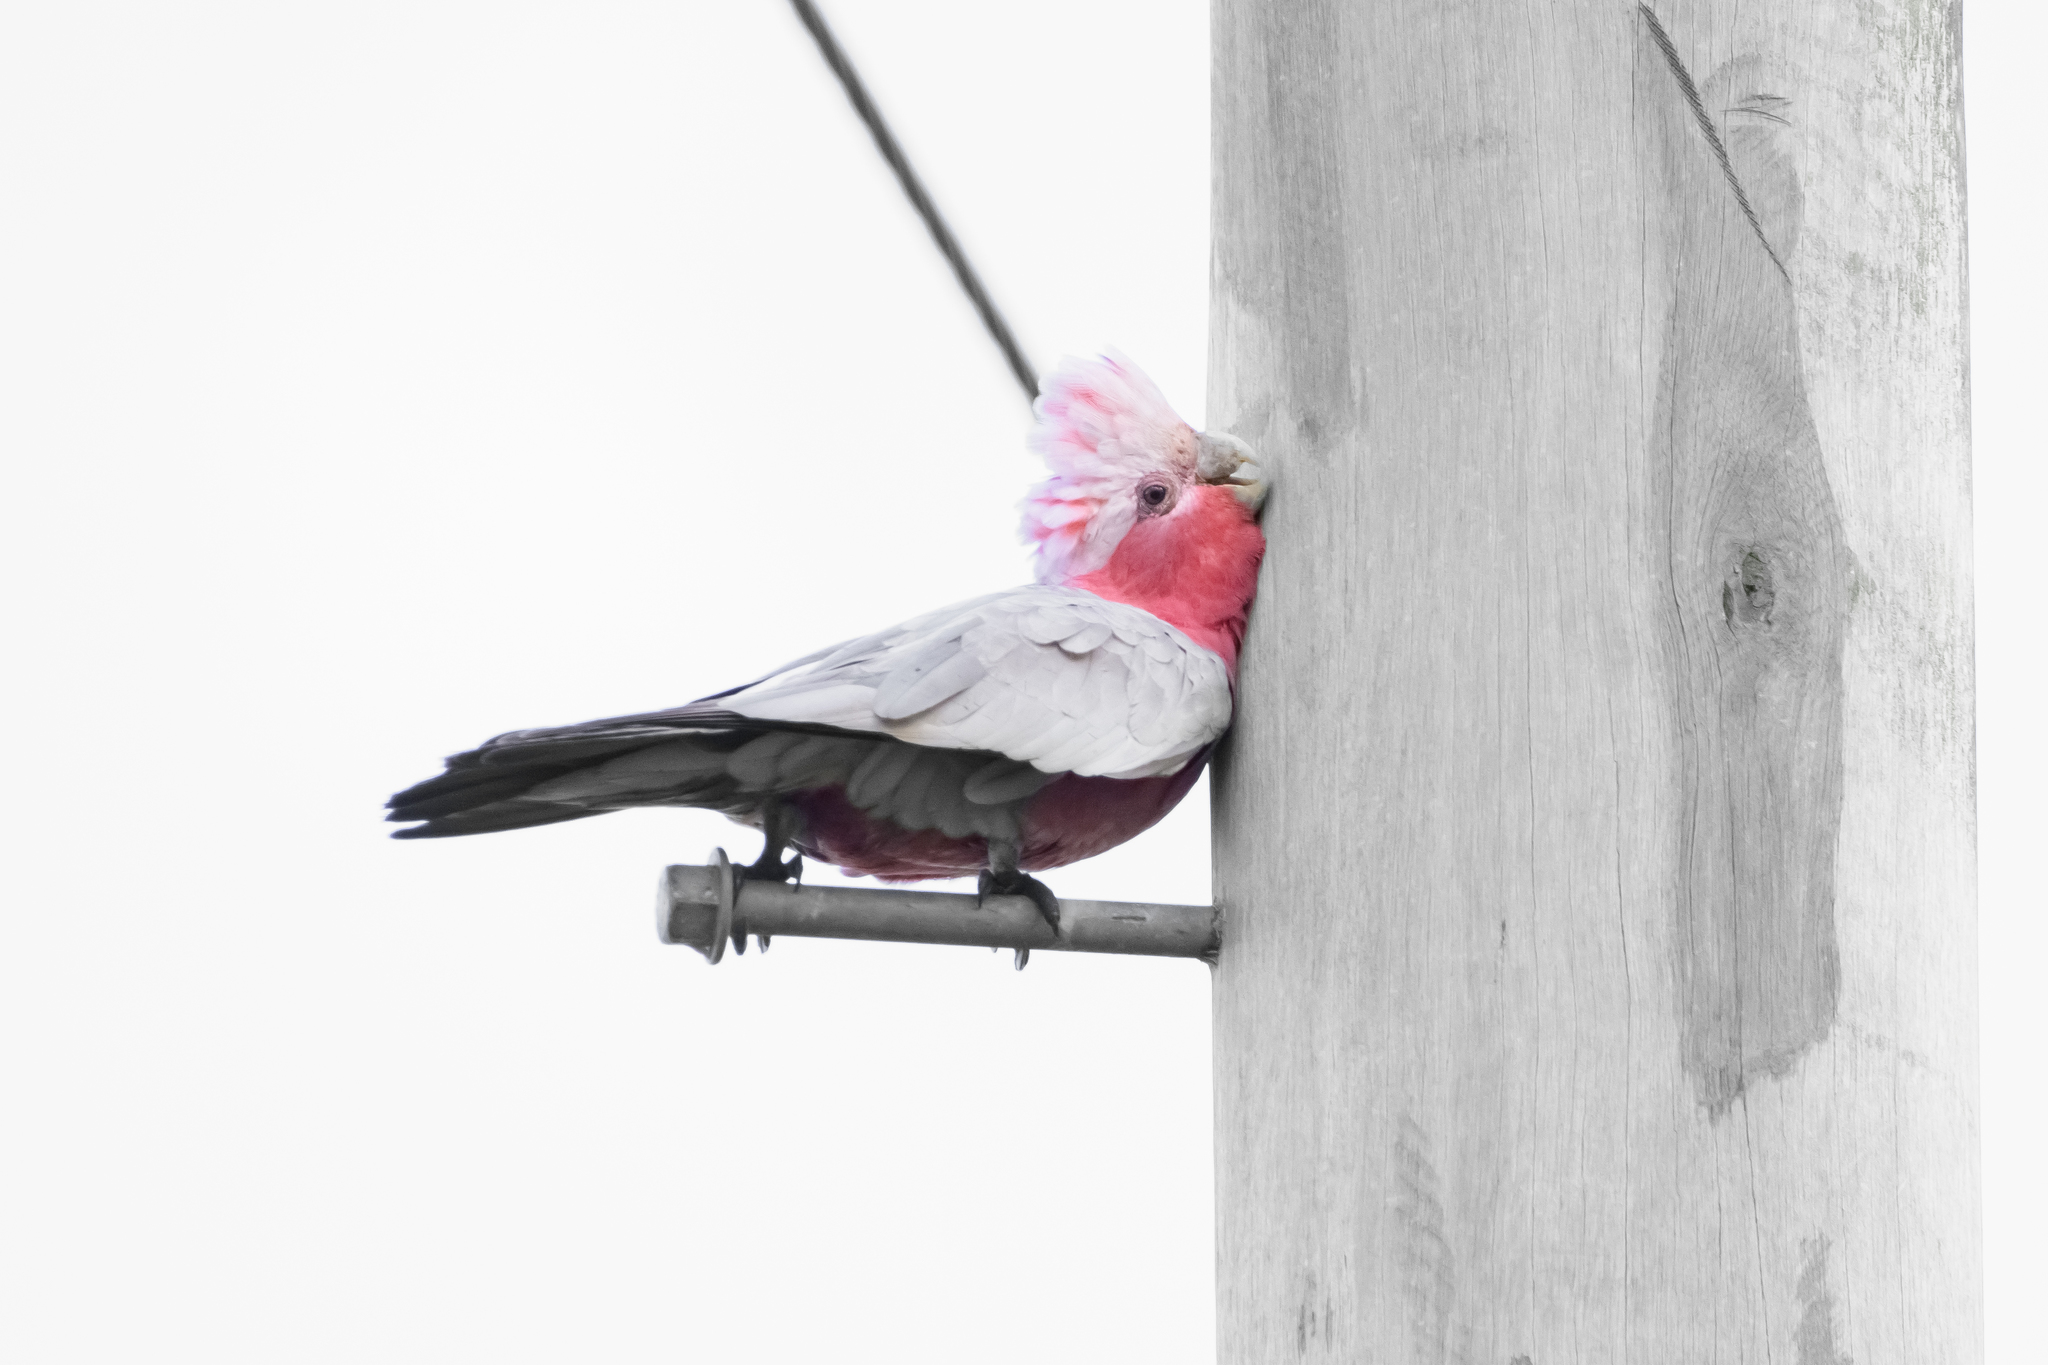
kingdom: Animalia
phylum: Chordata
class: Aves
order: Psittaciformes
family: Psittacidae
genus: Eolophus
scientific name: Eolophus roseicapilla
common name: Galah
